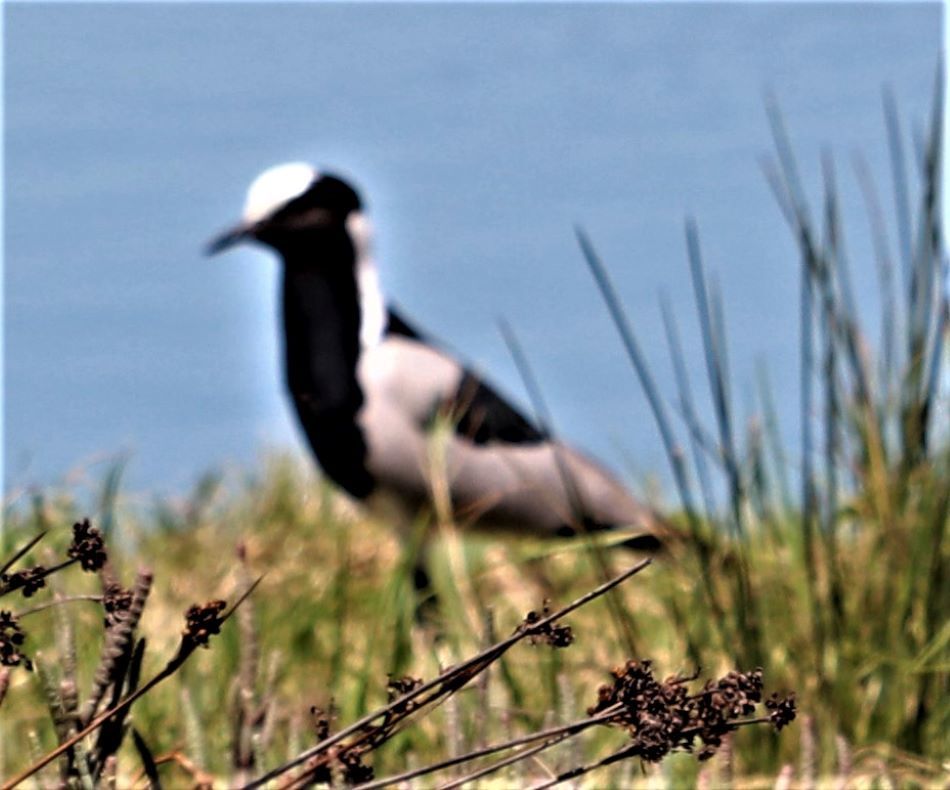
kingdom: Animalia
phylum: Chordata
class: Aves
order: Charadriiformes
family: Charadriidae
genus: Vanellus
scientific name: Vanellus armatus
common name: Blacksmith lapwing
